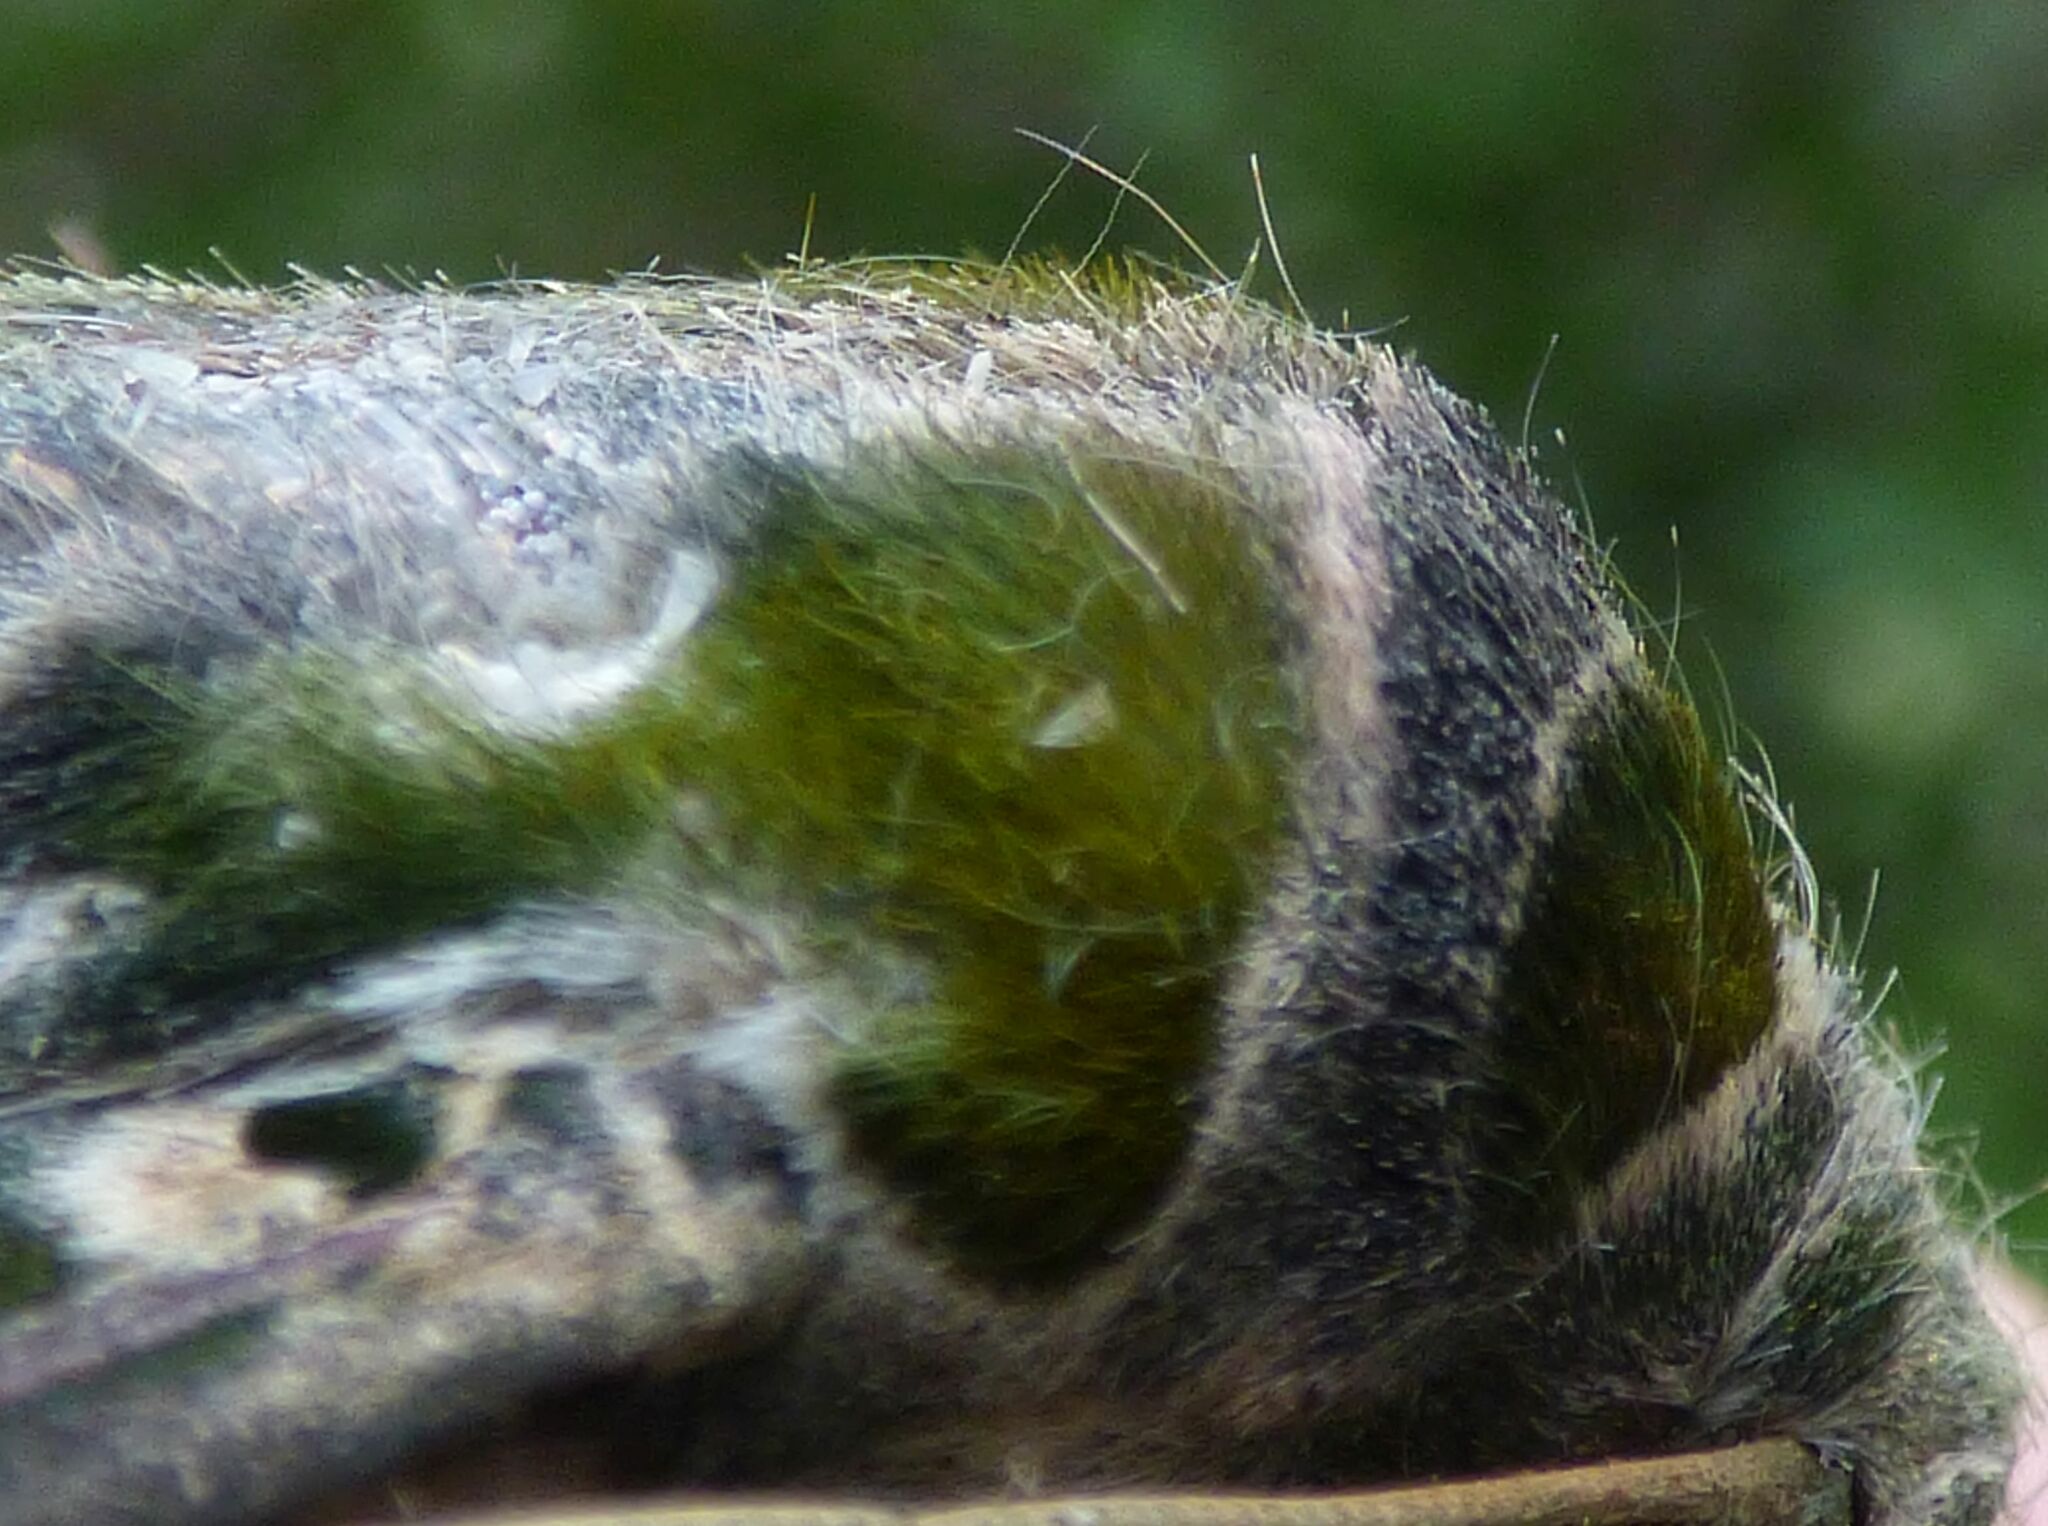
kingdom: Animalia
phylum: Arthropoda
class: Insecta
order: Lepidoptera
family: Sphingidae
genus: Daphnis
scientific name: Daphnis nerii
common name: Oleander hawk-moth
